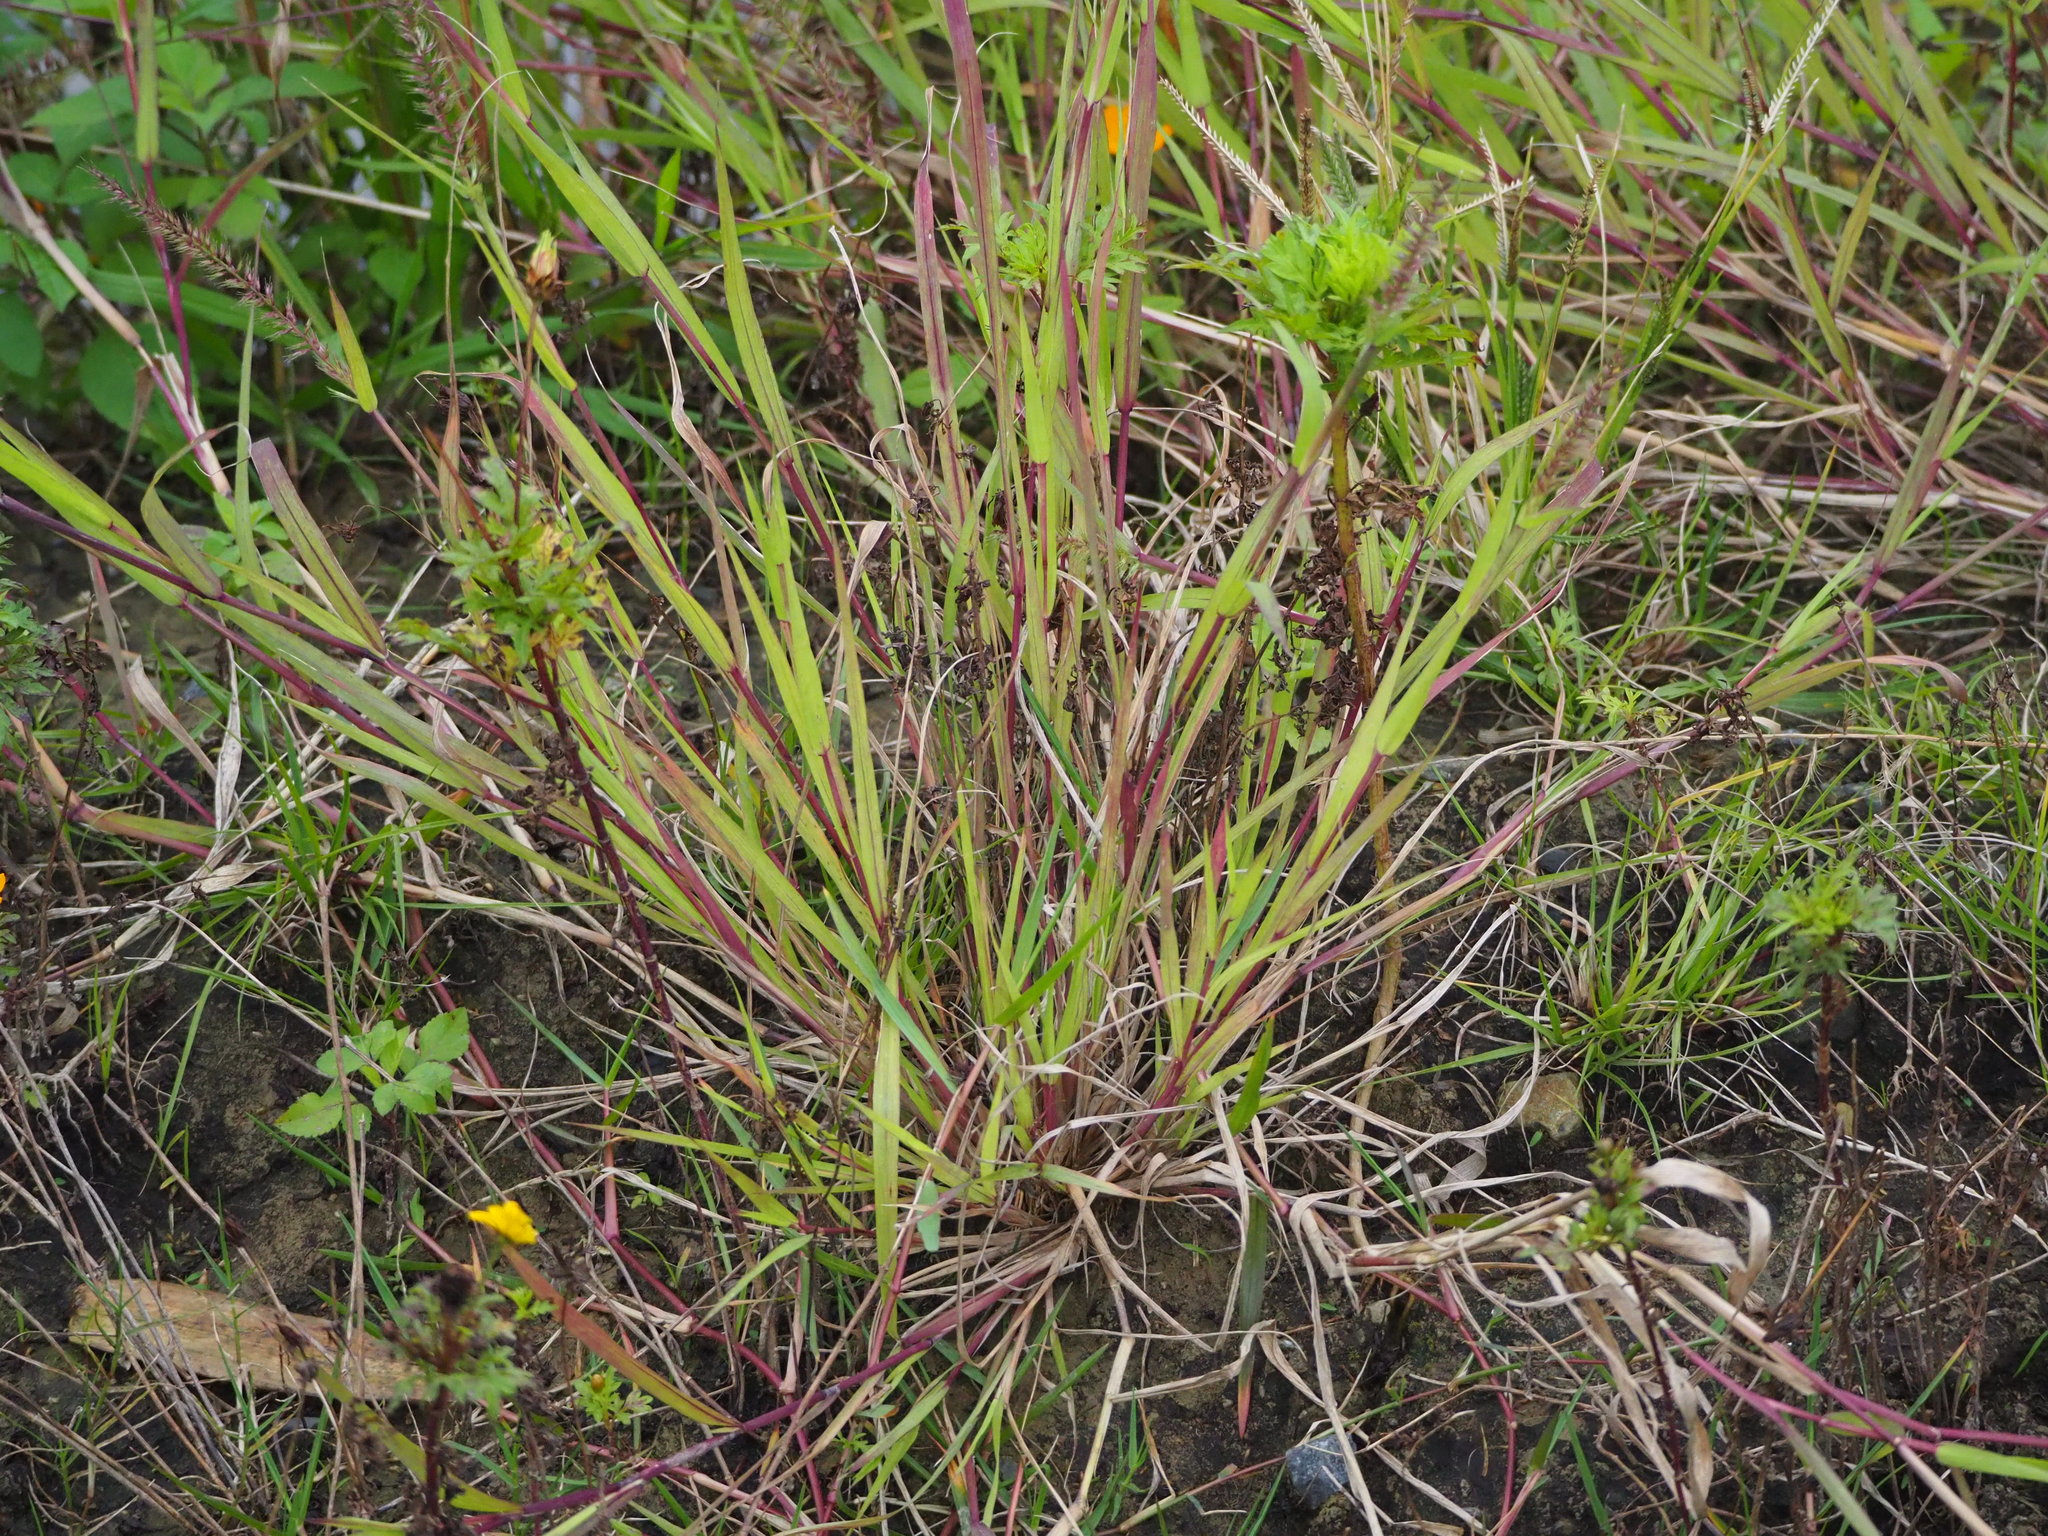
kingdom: Plantae
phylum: Tracheophyta
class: Liliopsida
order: Poales
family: Poaceae
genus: Dinebra
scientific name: Dinebra retroflexa
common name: Viper grass
